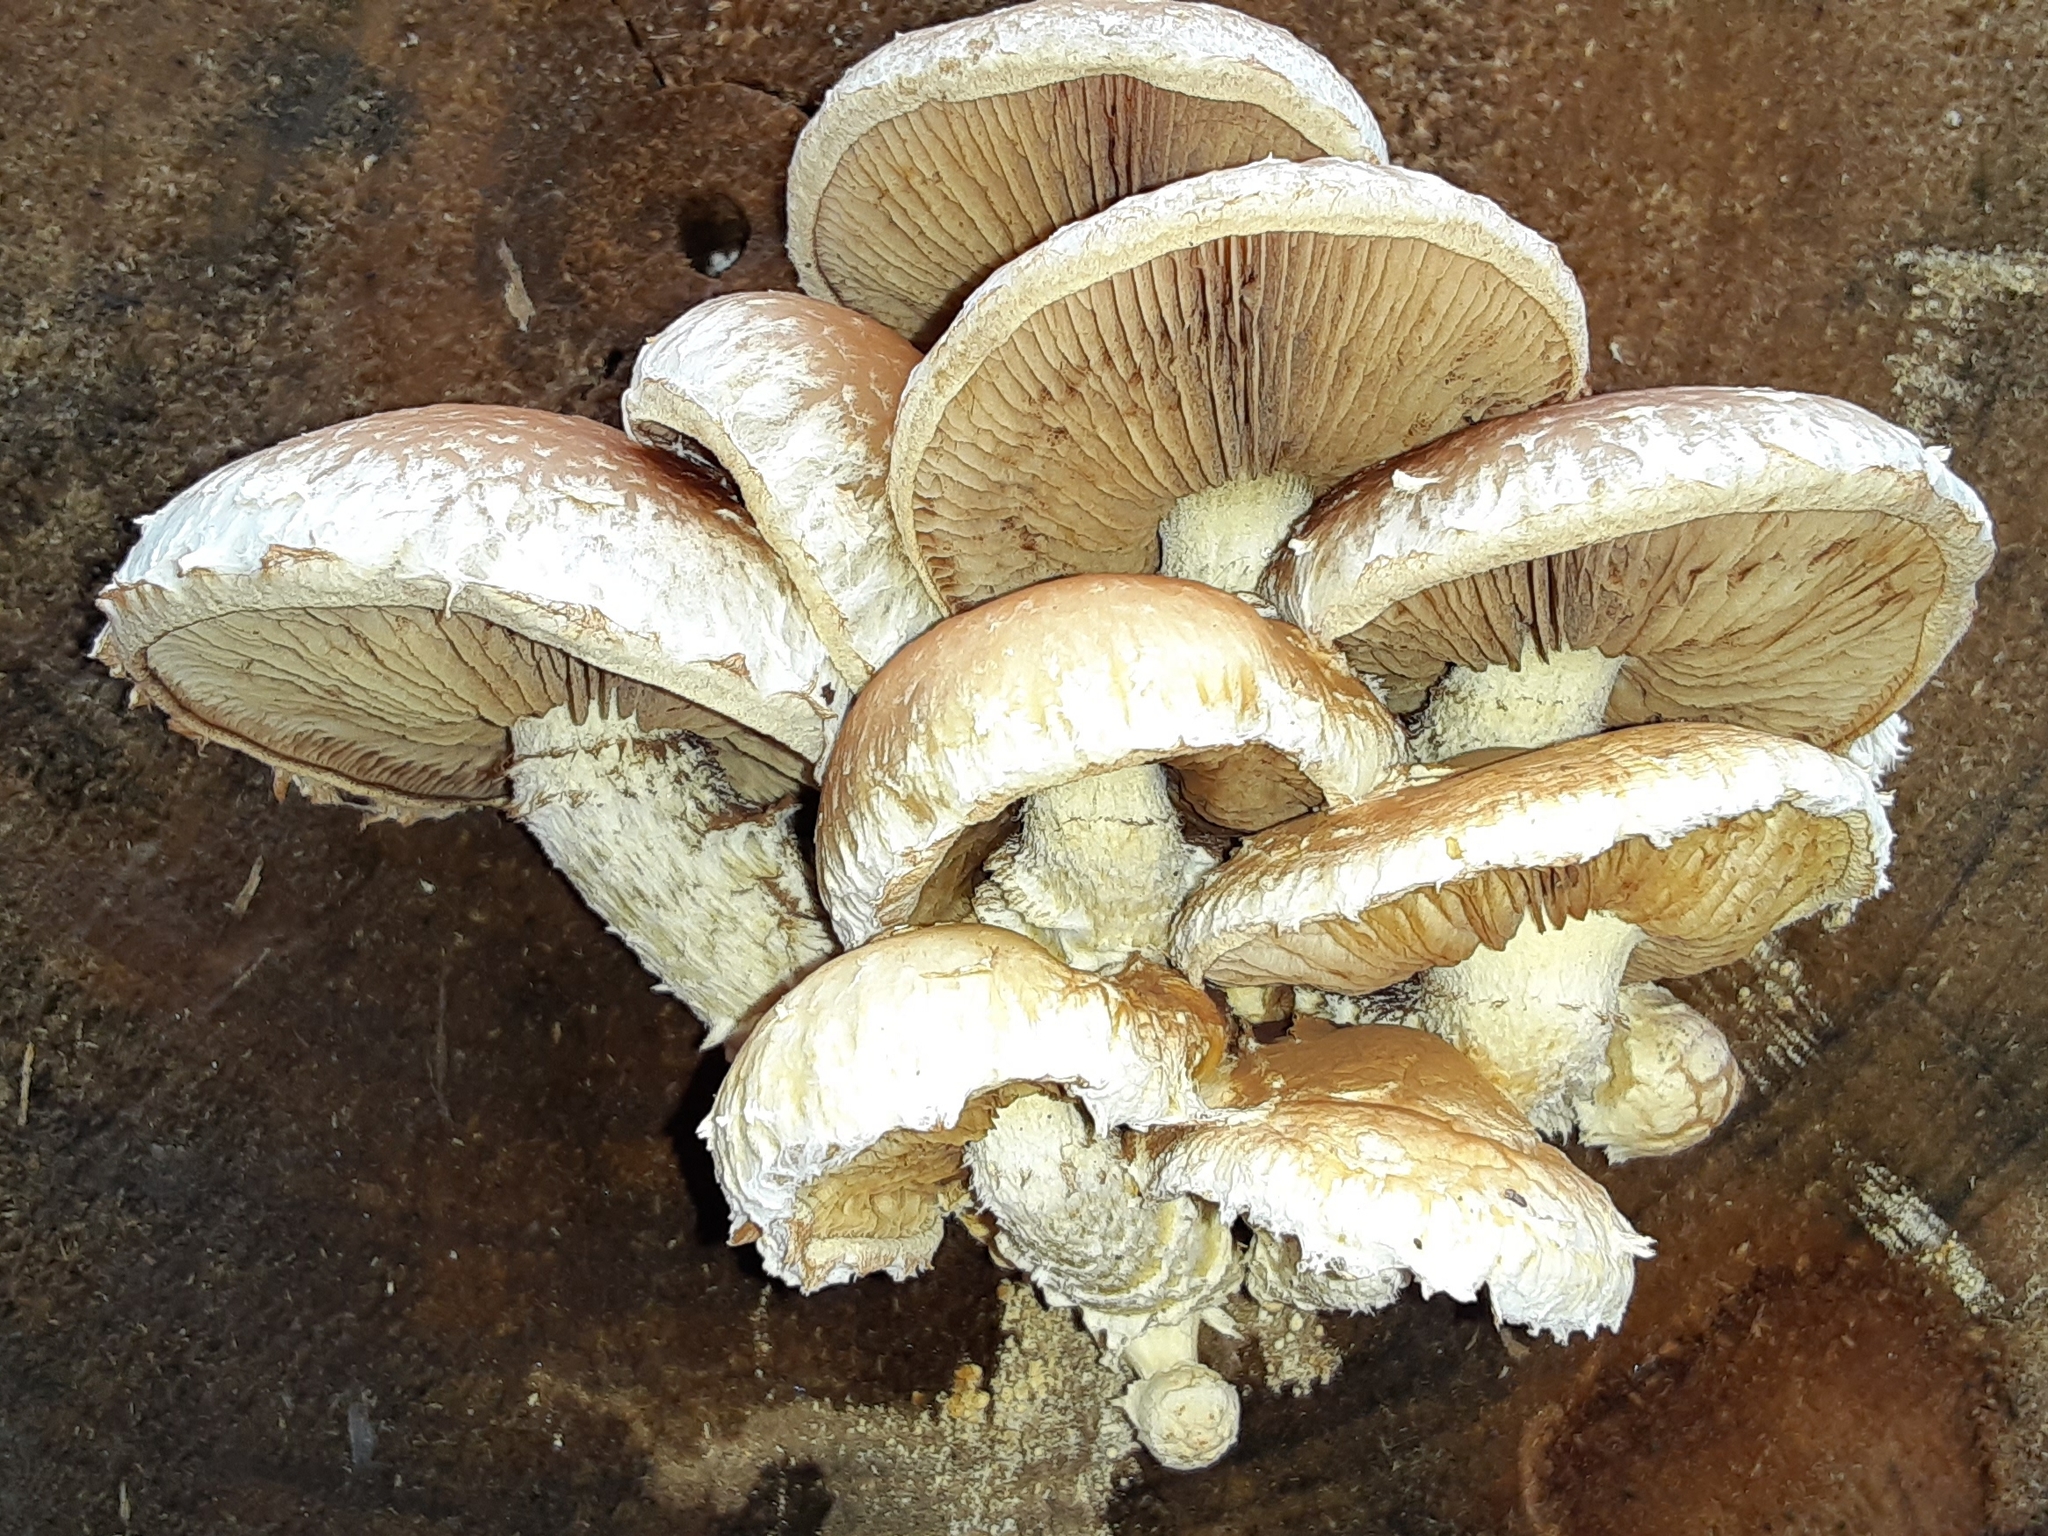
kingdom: Fungi
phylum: Basidiomycota
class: Agaricomycetes
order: Agaricales
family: Strophariaceae
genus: Pholiota
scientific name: Pholiota populnea
